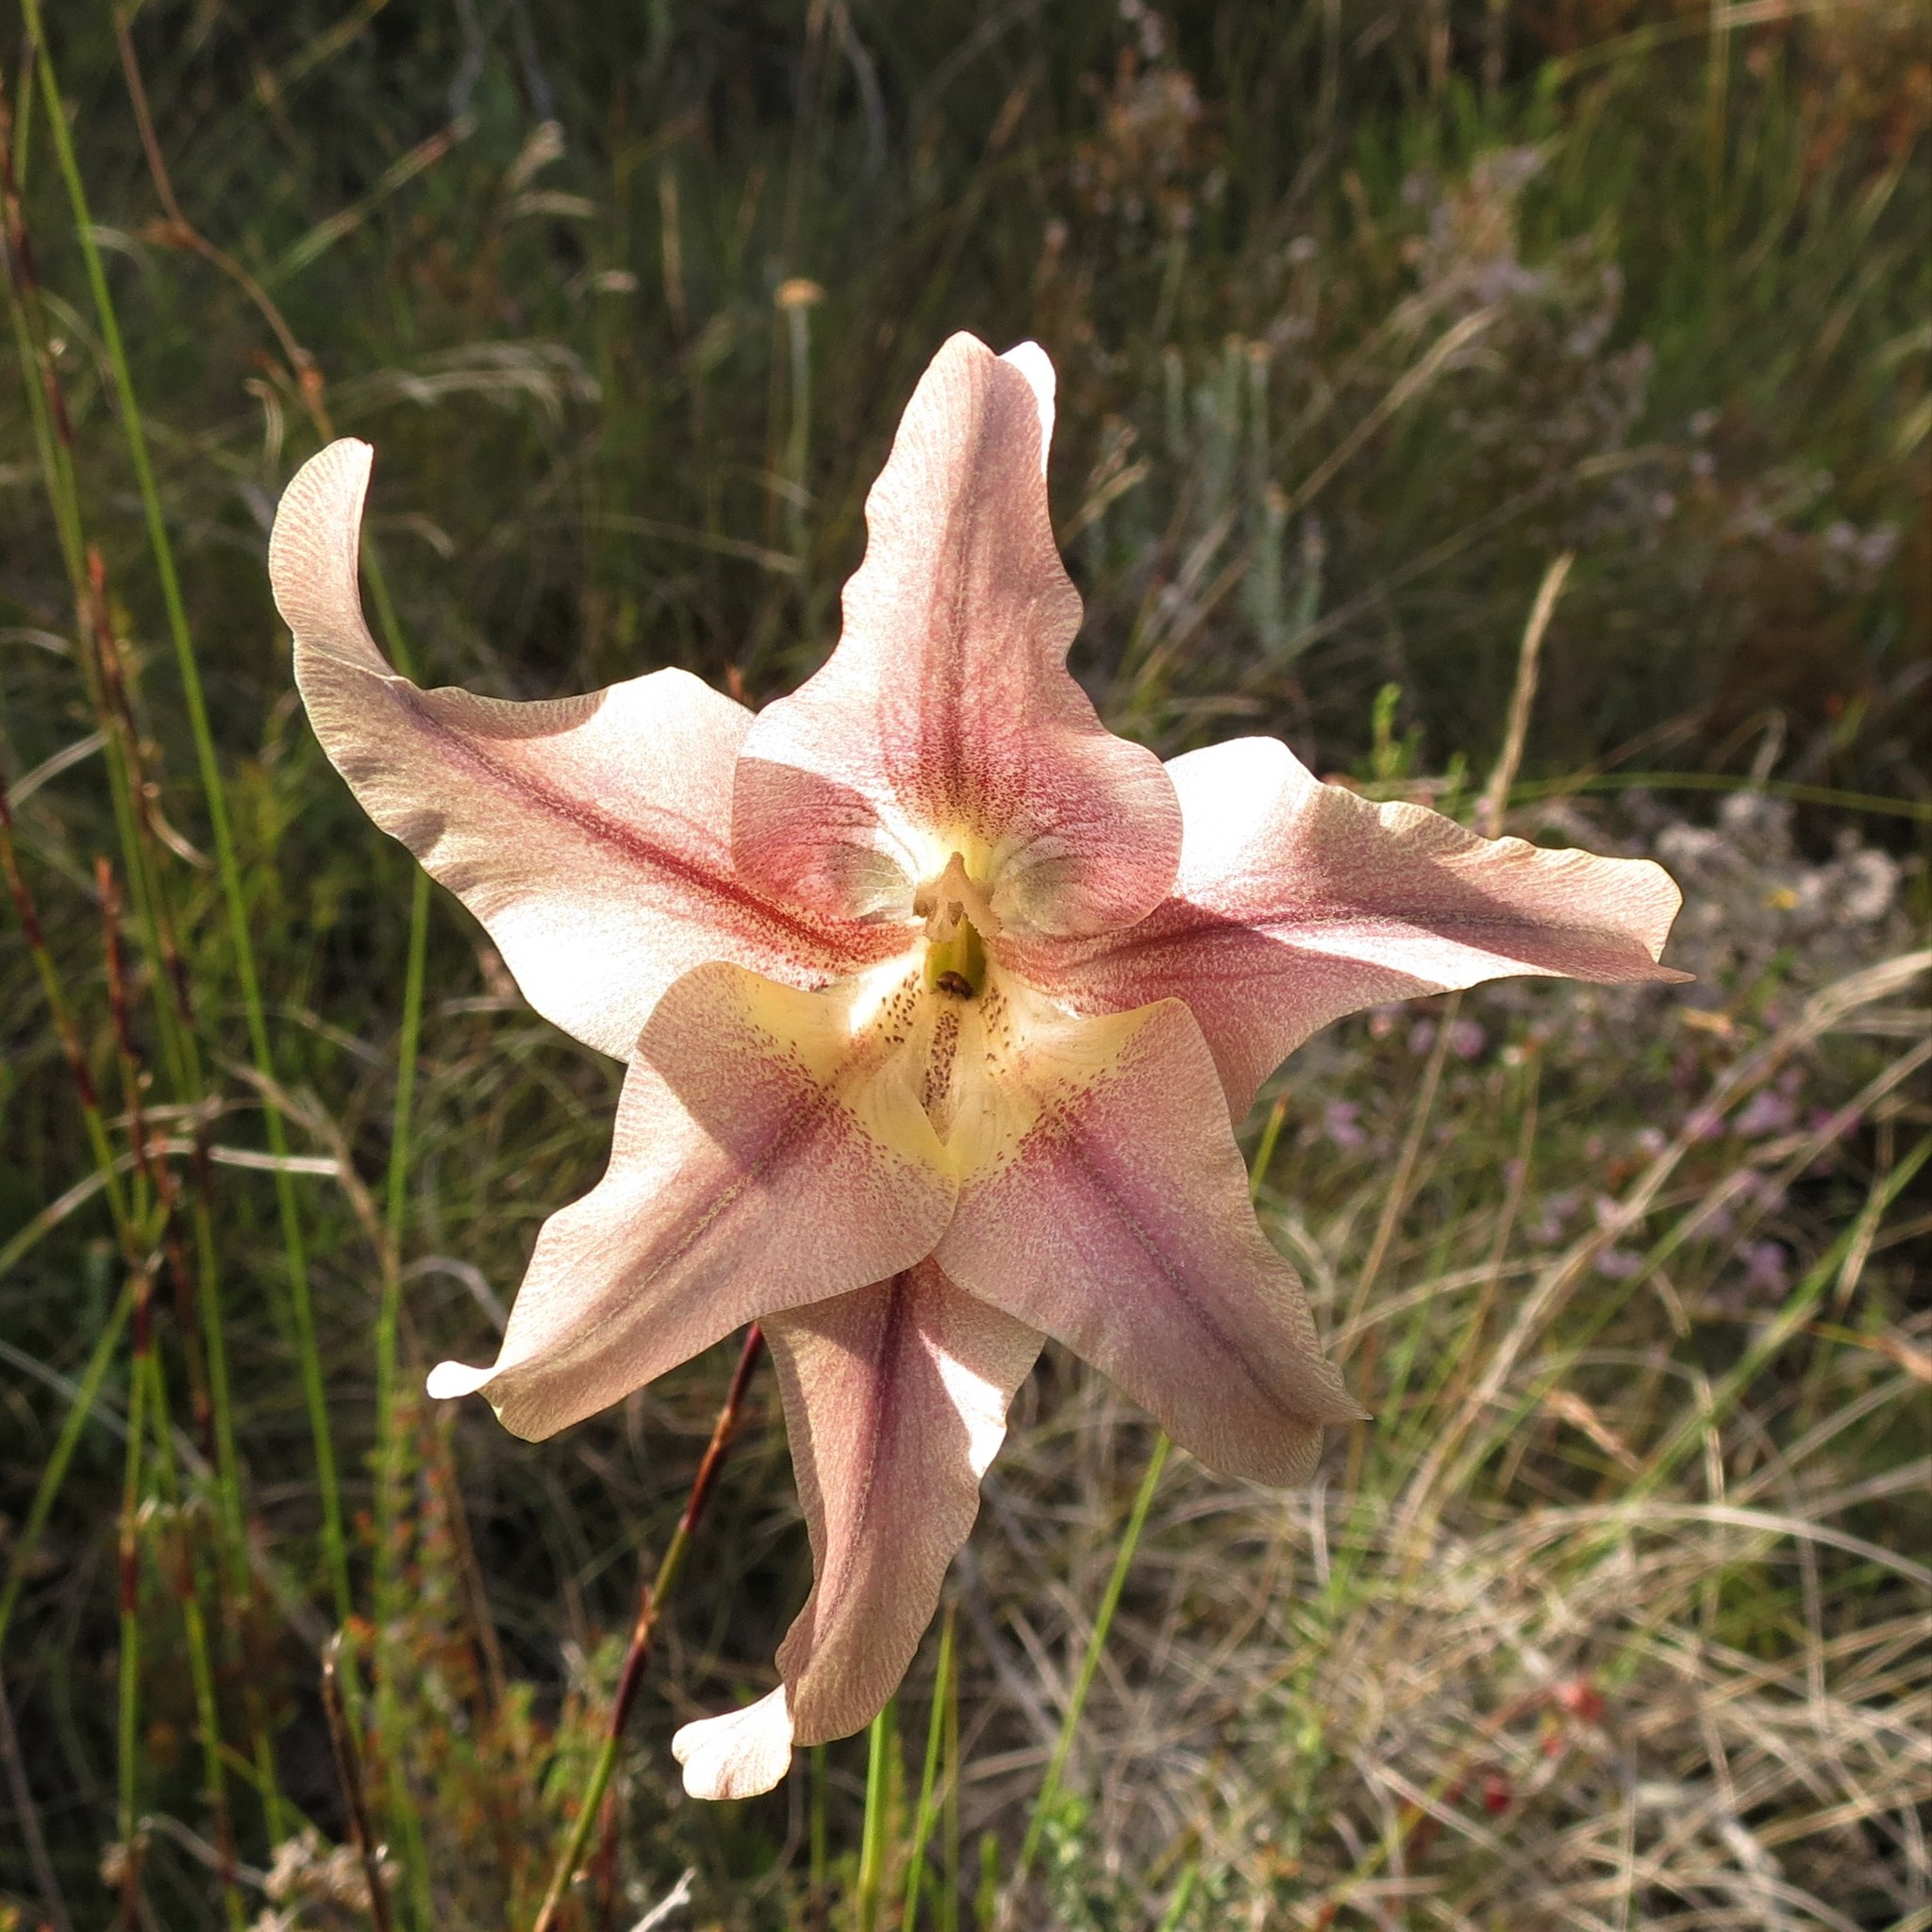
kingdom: Plantae
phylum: Tracheophyta
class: Liliopsida
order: Asparagales
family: Iridaceae
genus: Gladiolus
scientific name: Gladiolus liliaceus
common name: Large brown afrikaner
